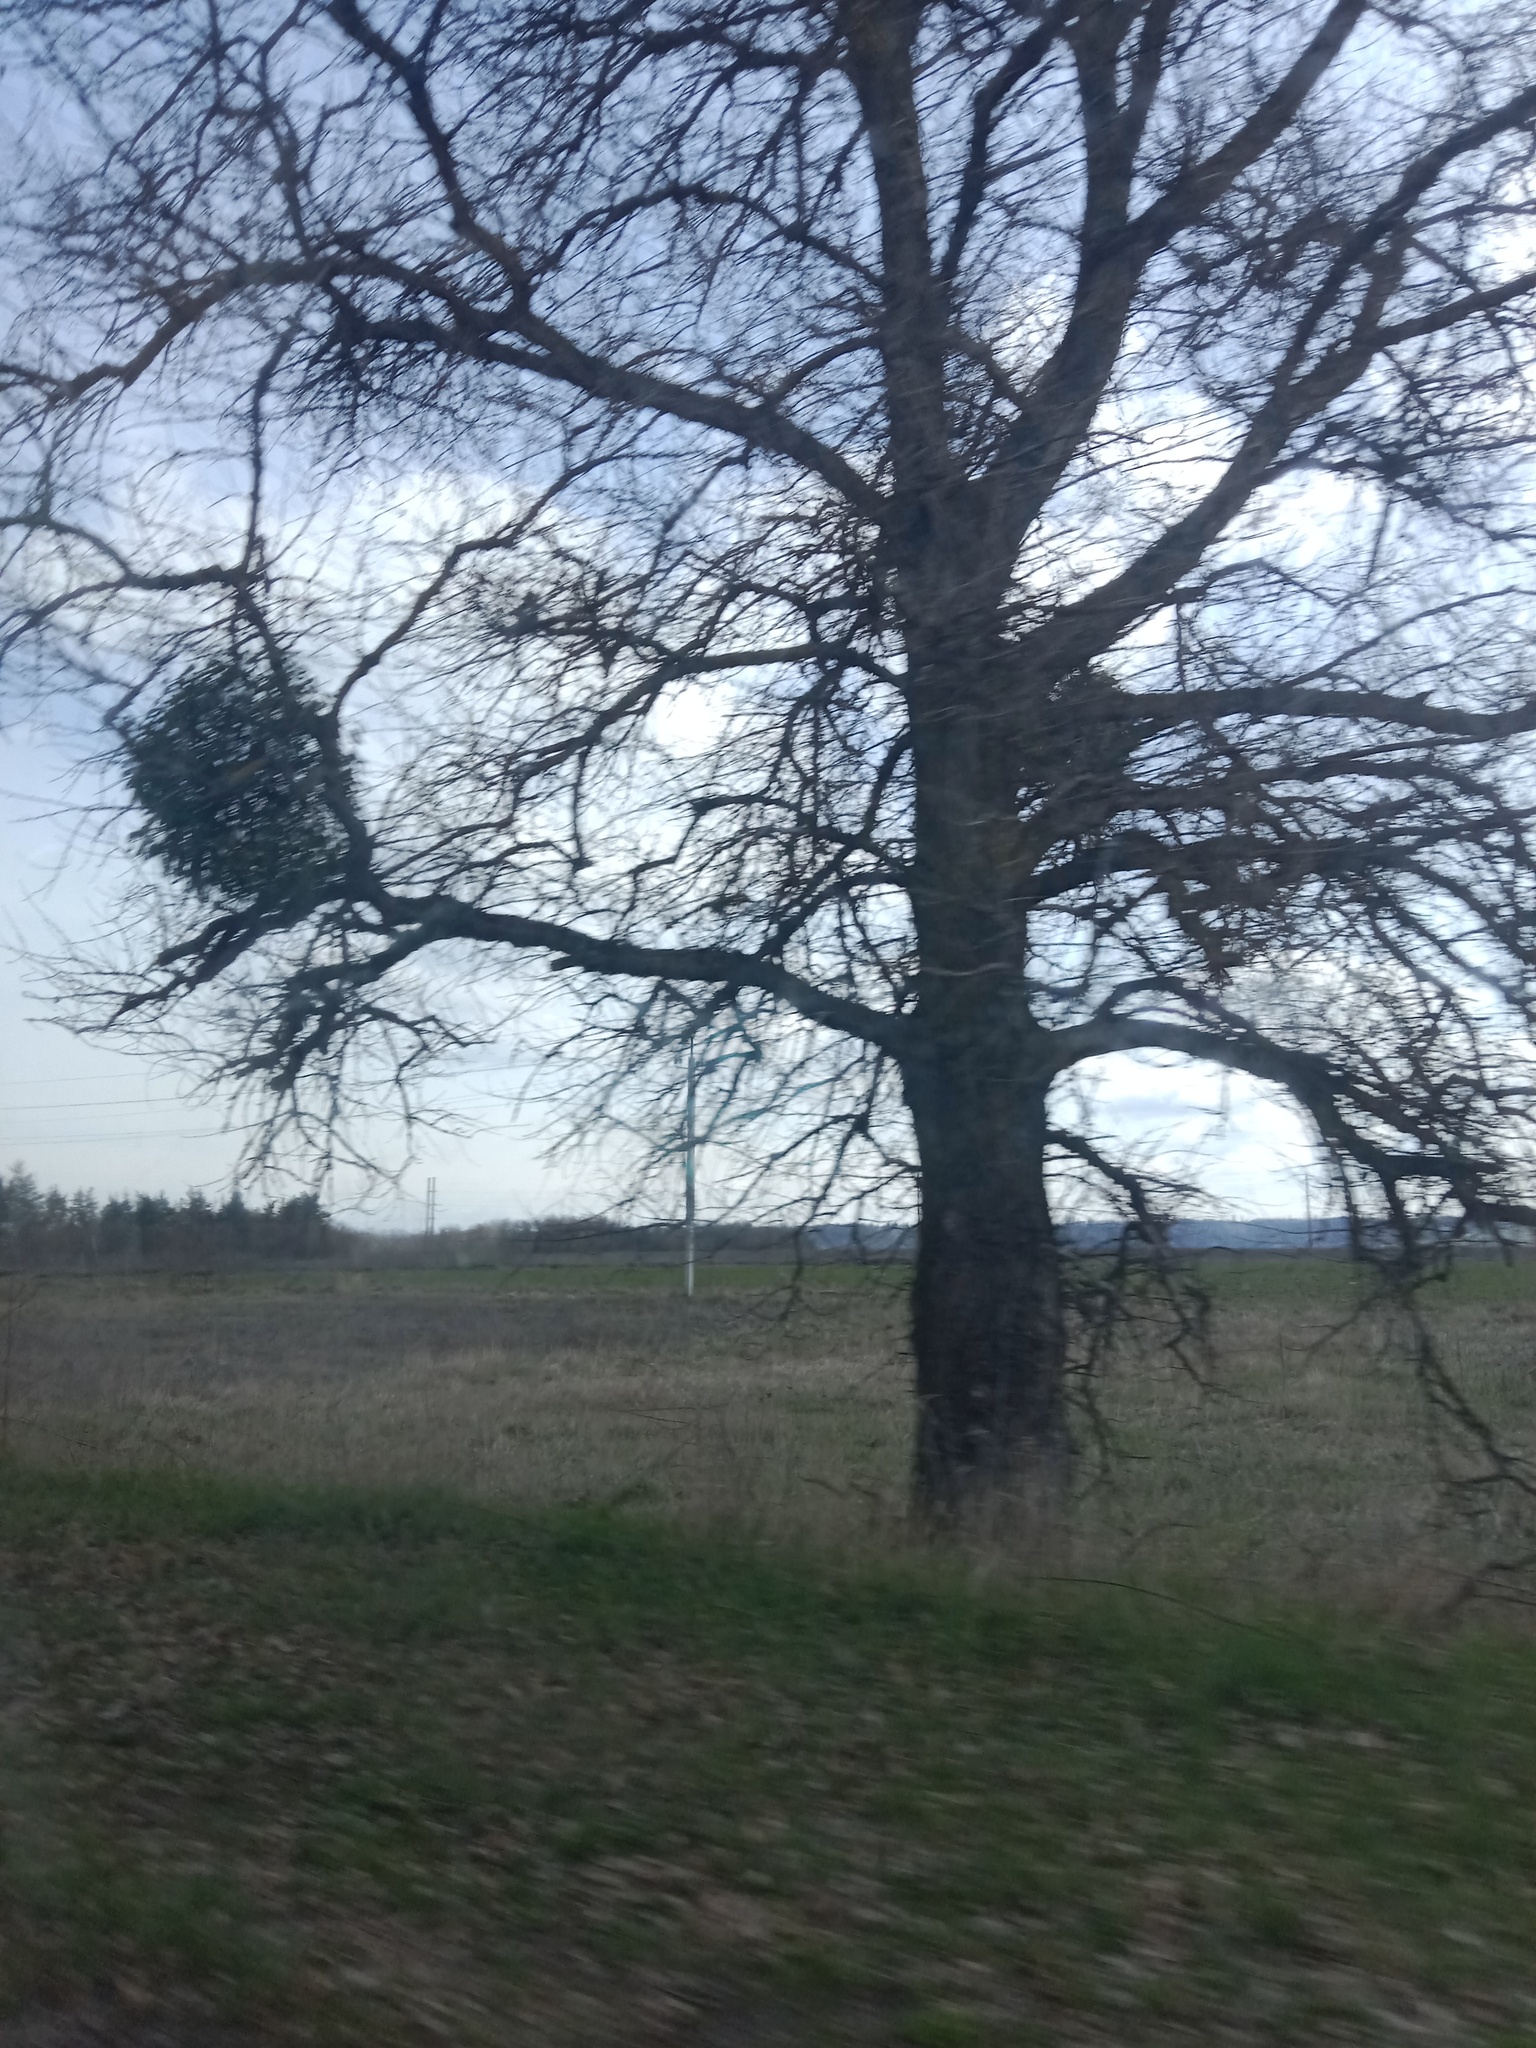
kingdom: Plantae
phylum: Tracheophyta
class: Magnoliopsida
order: Santalales
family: Viscaceae
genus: Viscum
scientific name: Viscum album
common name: Mistletoe
